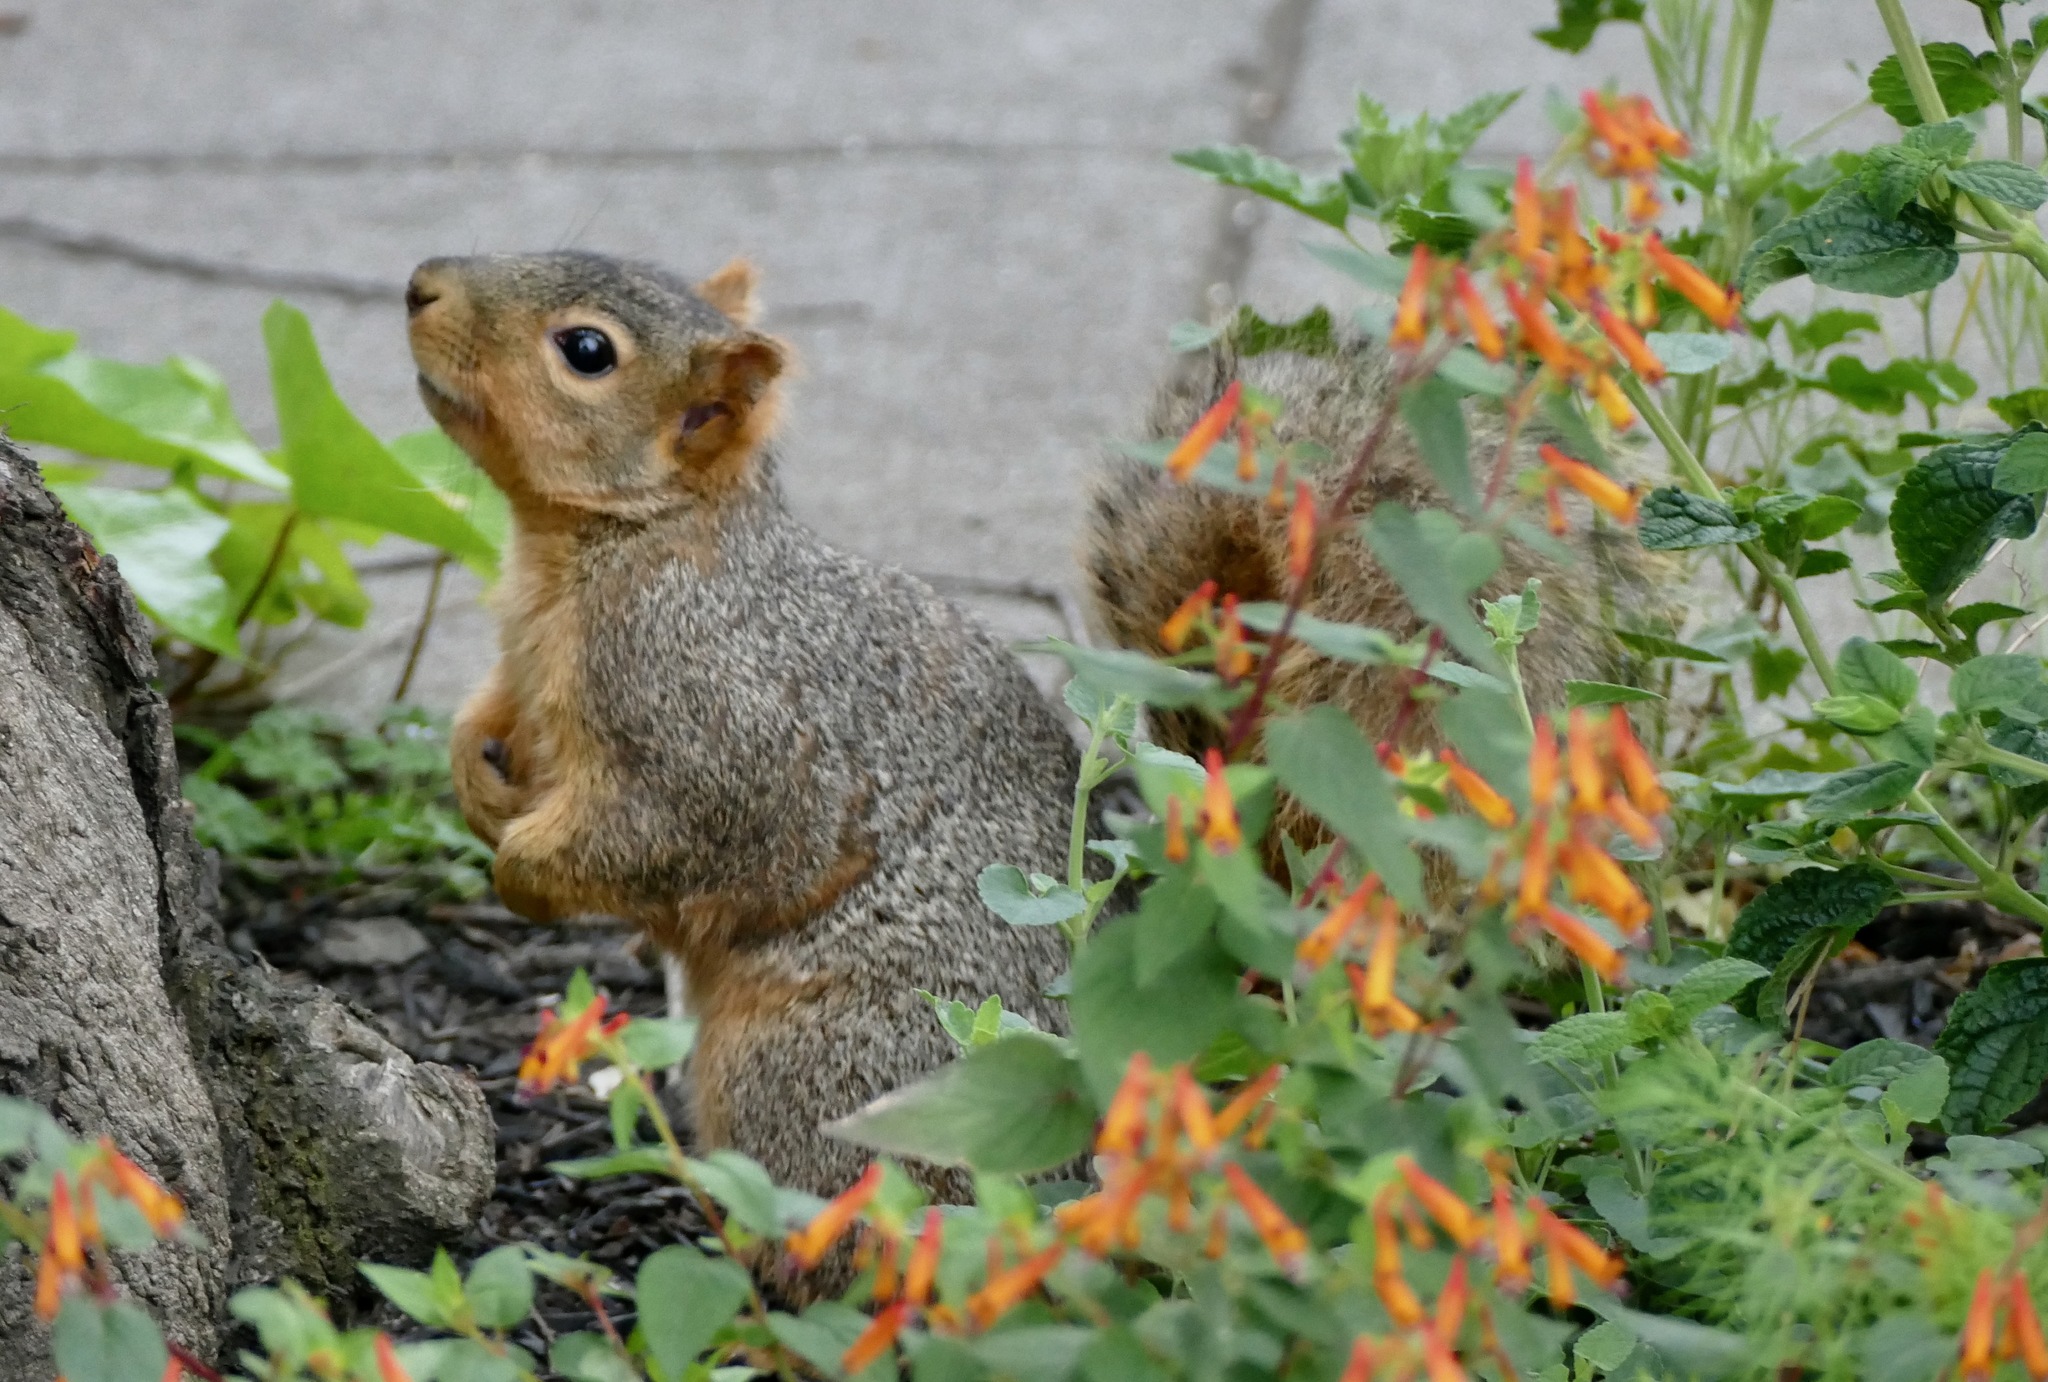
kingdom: Animalia
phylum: Chordata
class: Mammalia
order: Rodentia
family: Sciuridae
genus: Sciurus
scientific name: Sciurus niger
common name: Fox squirrel
